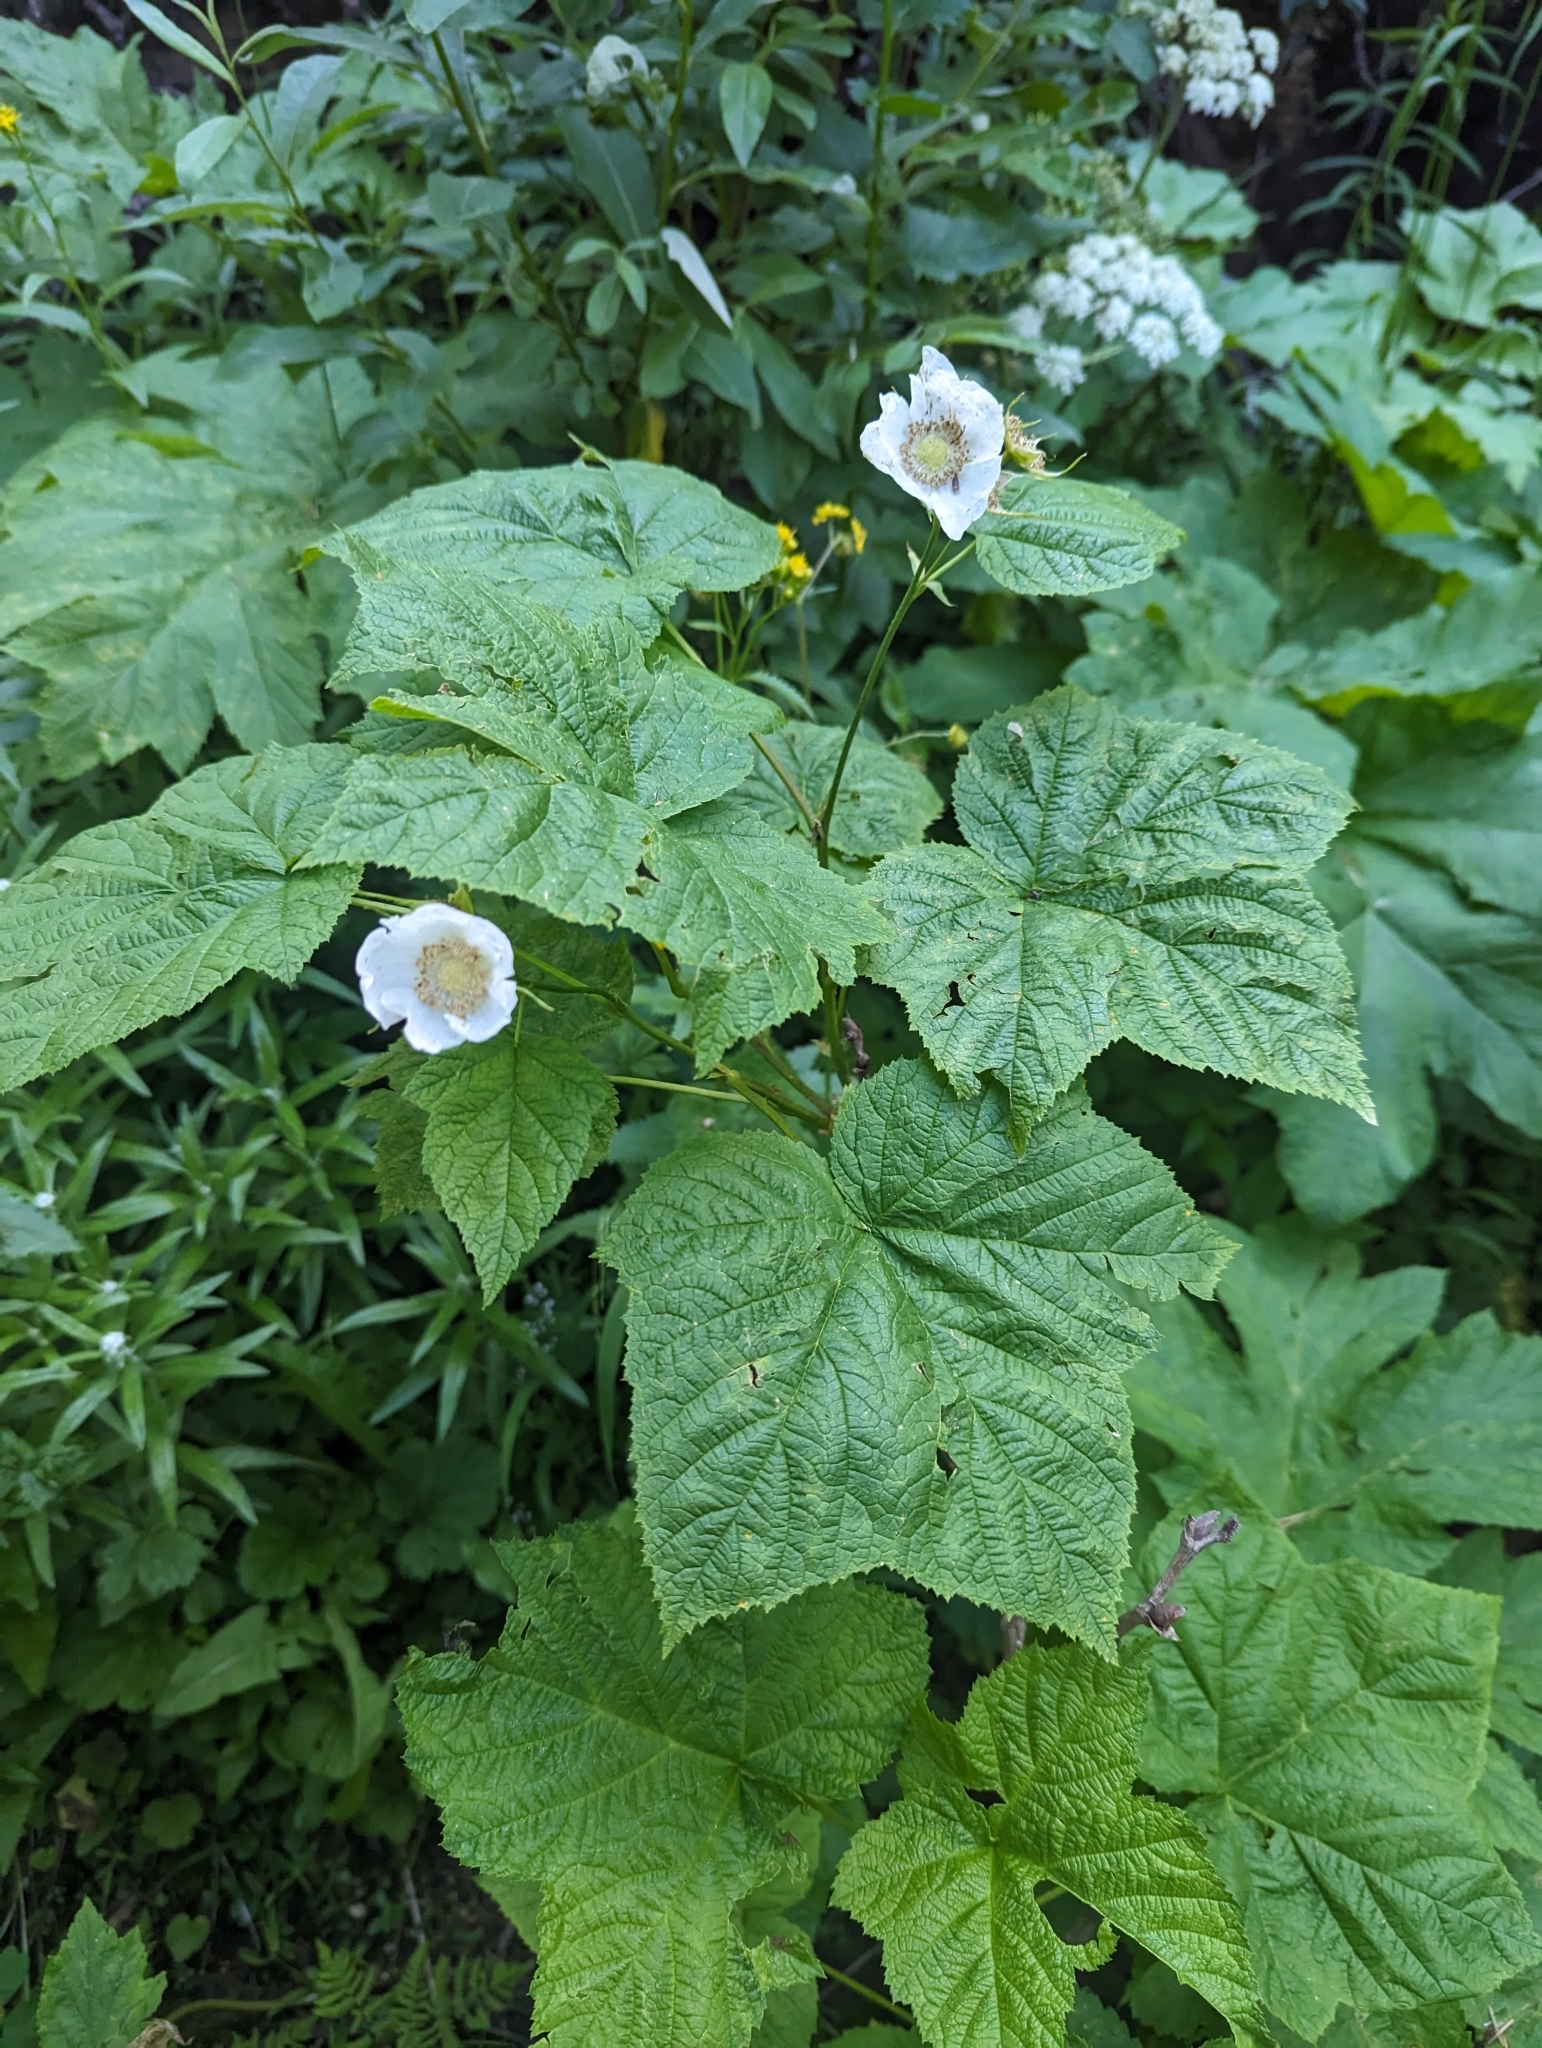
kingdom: Plantae
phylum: Tracheophyta
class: Magnoliopsida
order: Rosales
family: Rosaceae
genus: Rubus
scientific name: Rubus parviflorus
